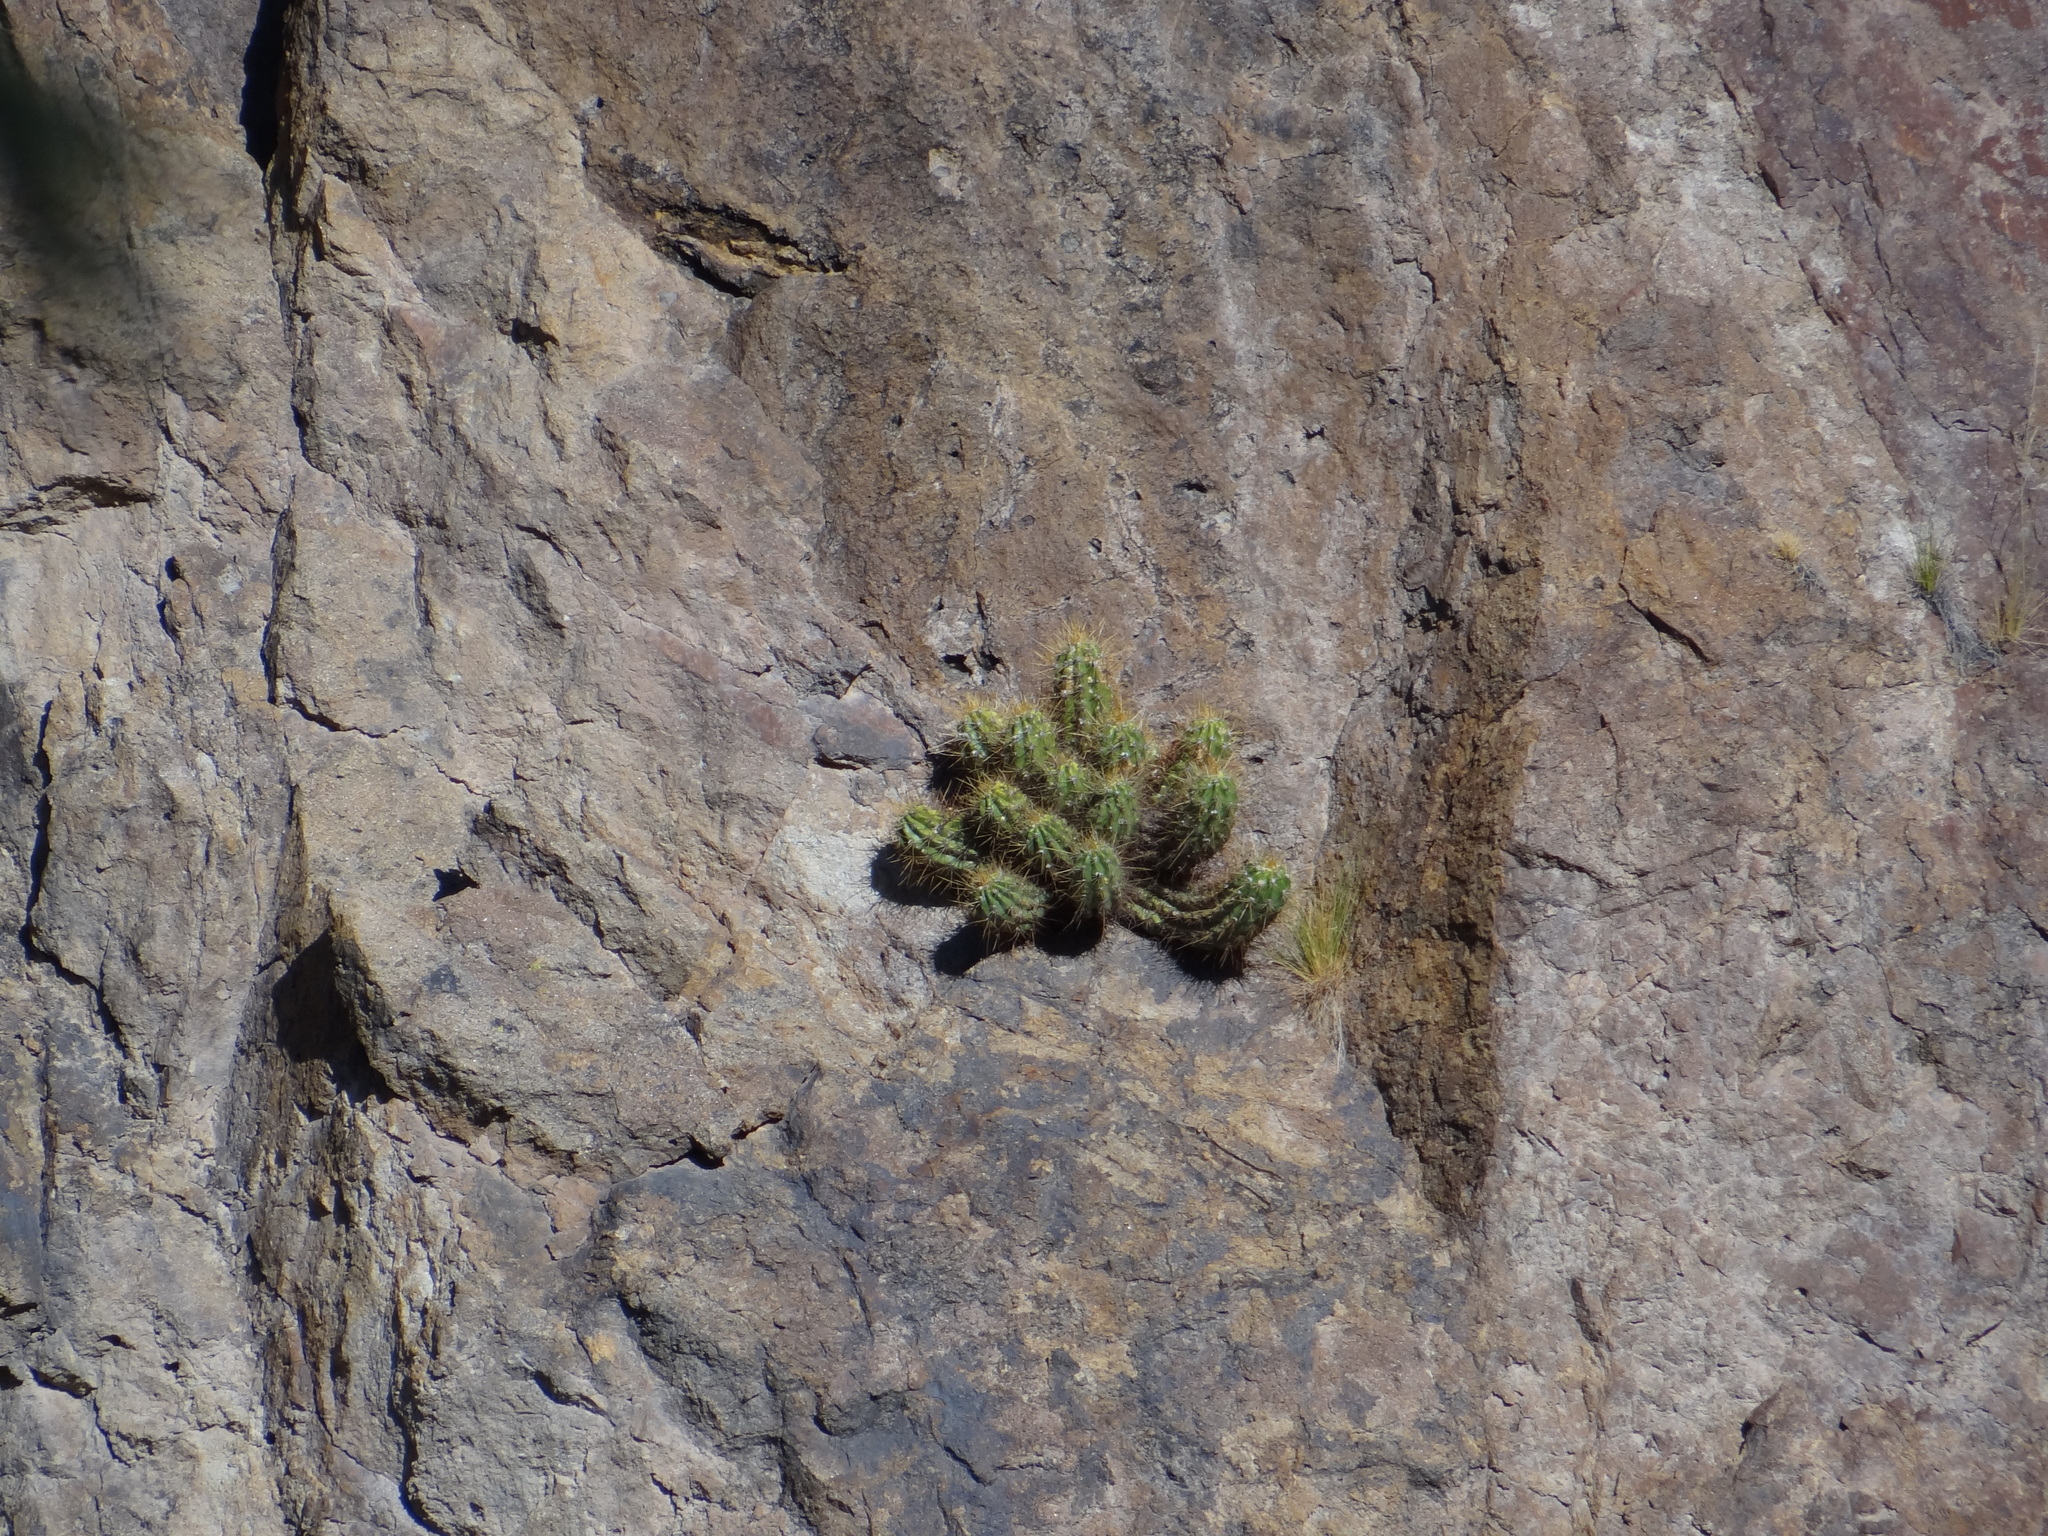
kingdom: Plantae
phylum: Tracheophyta
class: Magnoliopsida
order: Caryophyllales
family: Cactaceae
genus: Soehrensia
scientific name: Soehrensia candicans
